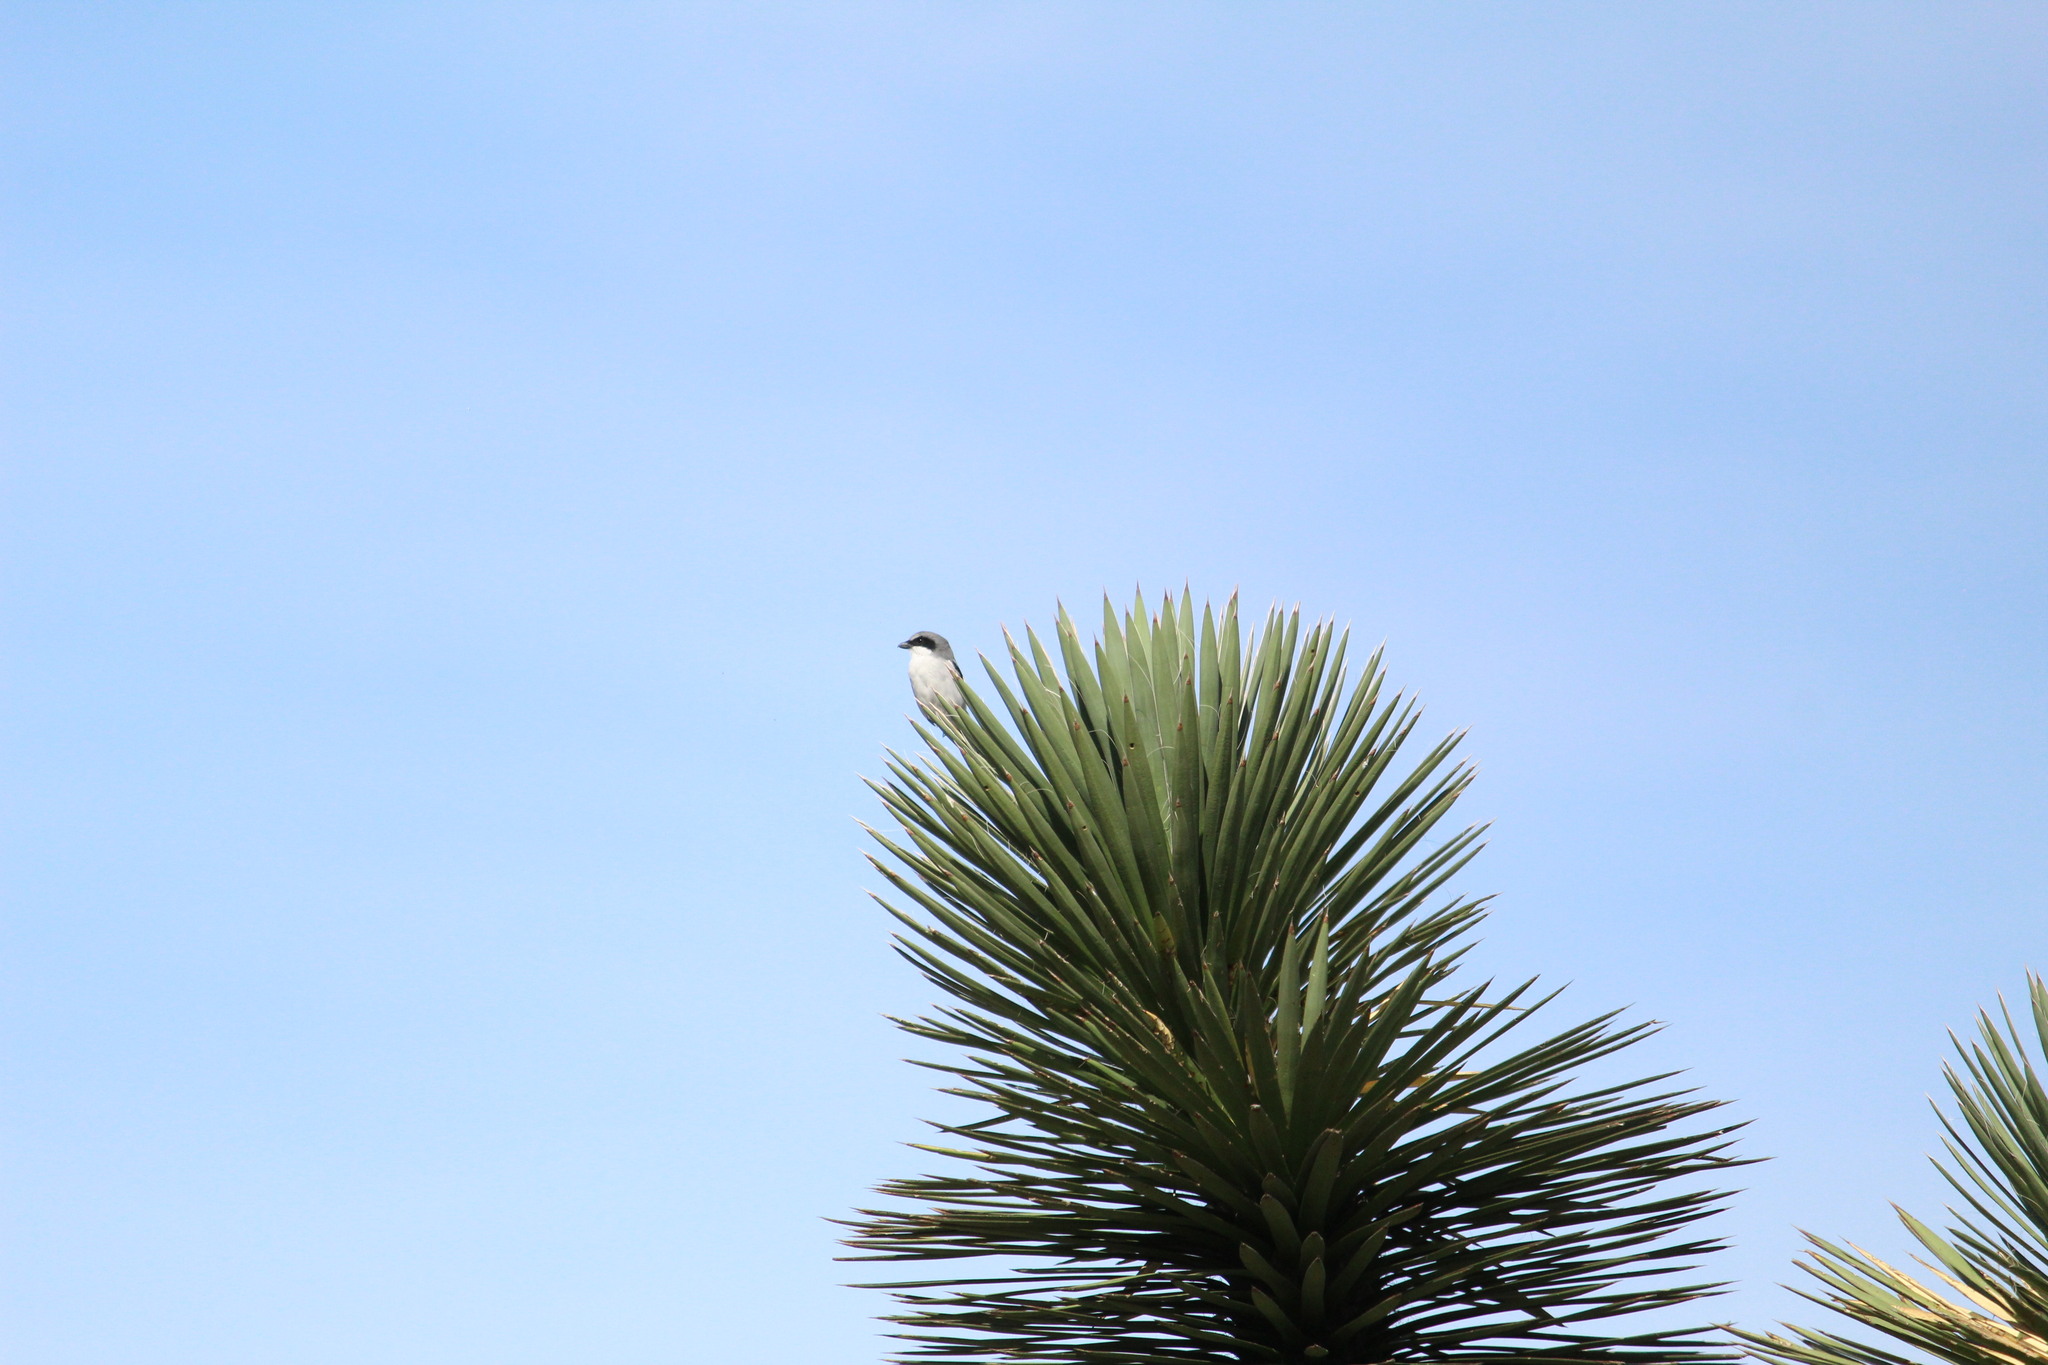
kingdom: Animalia
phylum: Chordata
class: Aves
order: Passeriformes
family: Laniidae
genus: Lanius
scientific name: Lanius ludovicianus
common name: Loggerhead shrike
